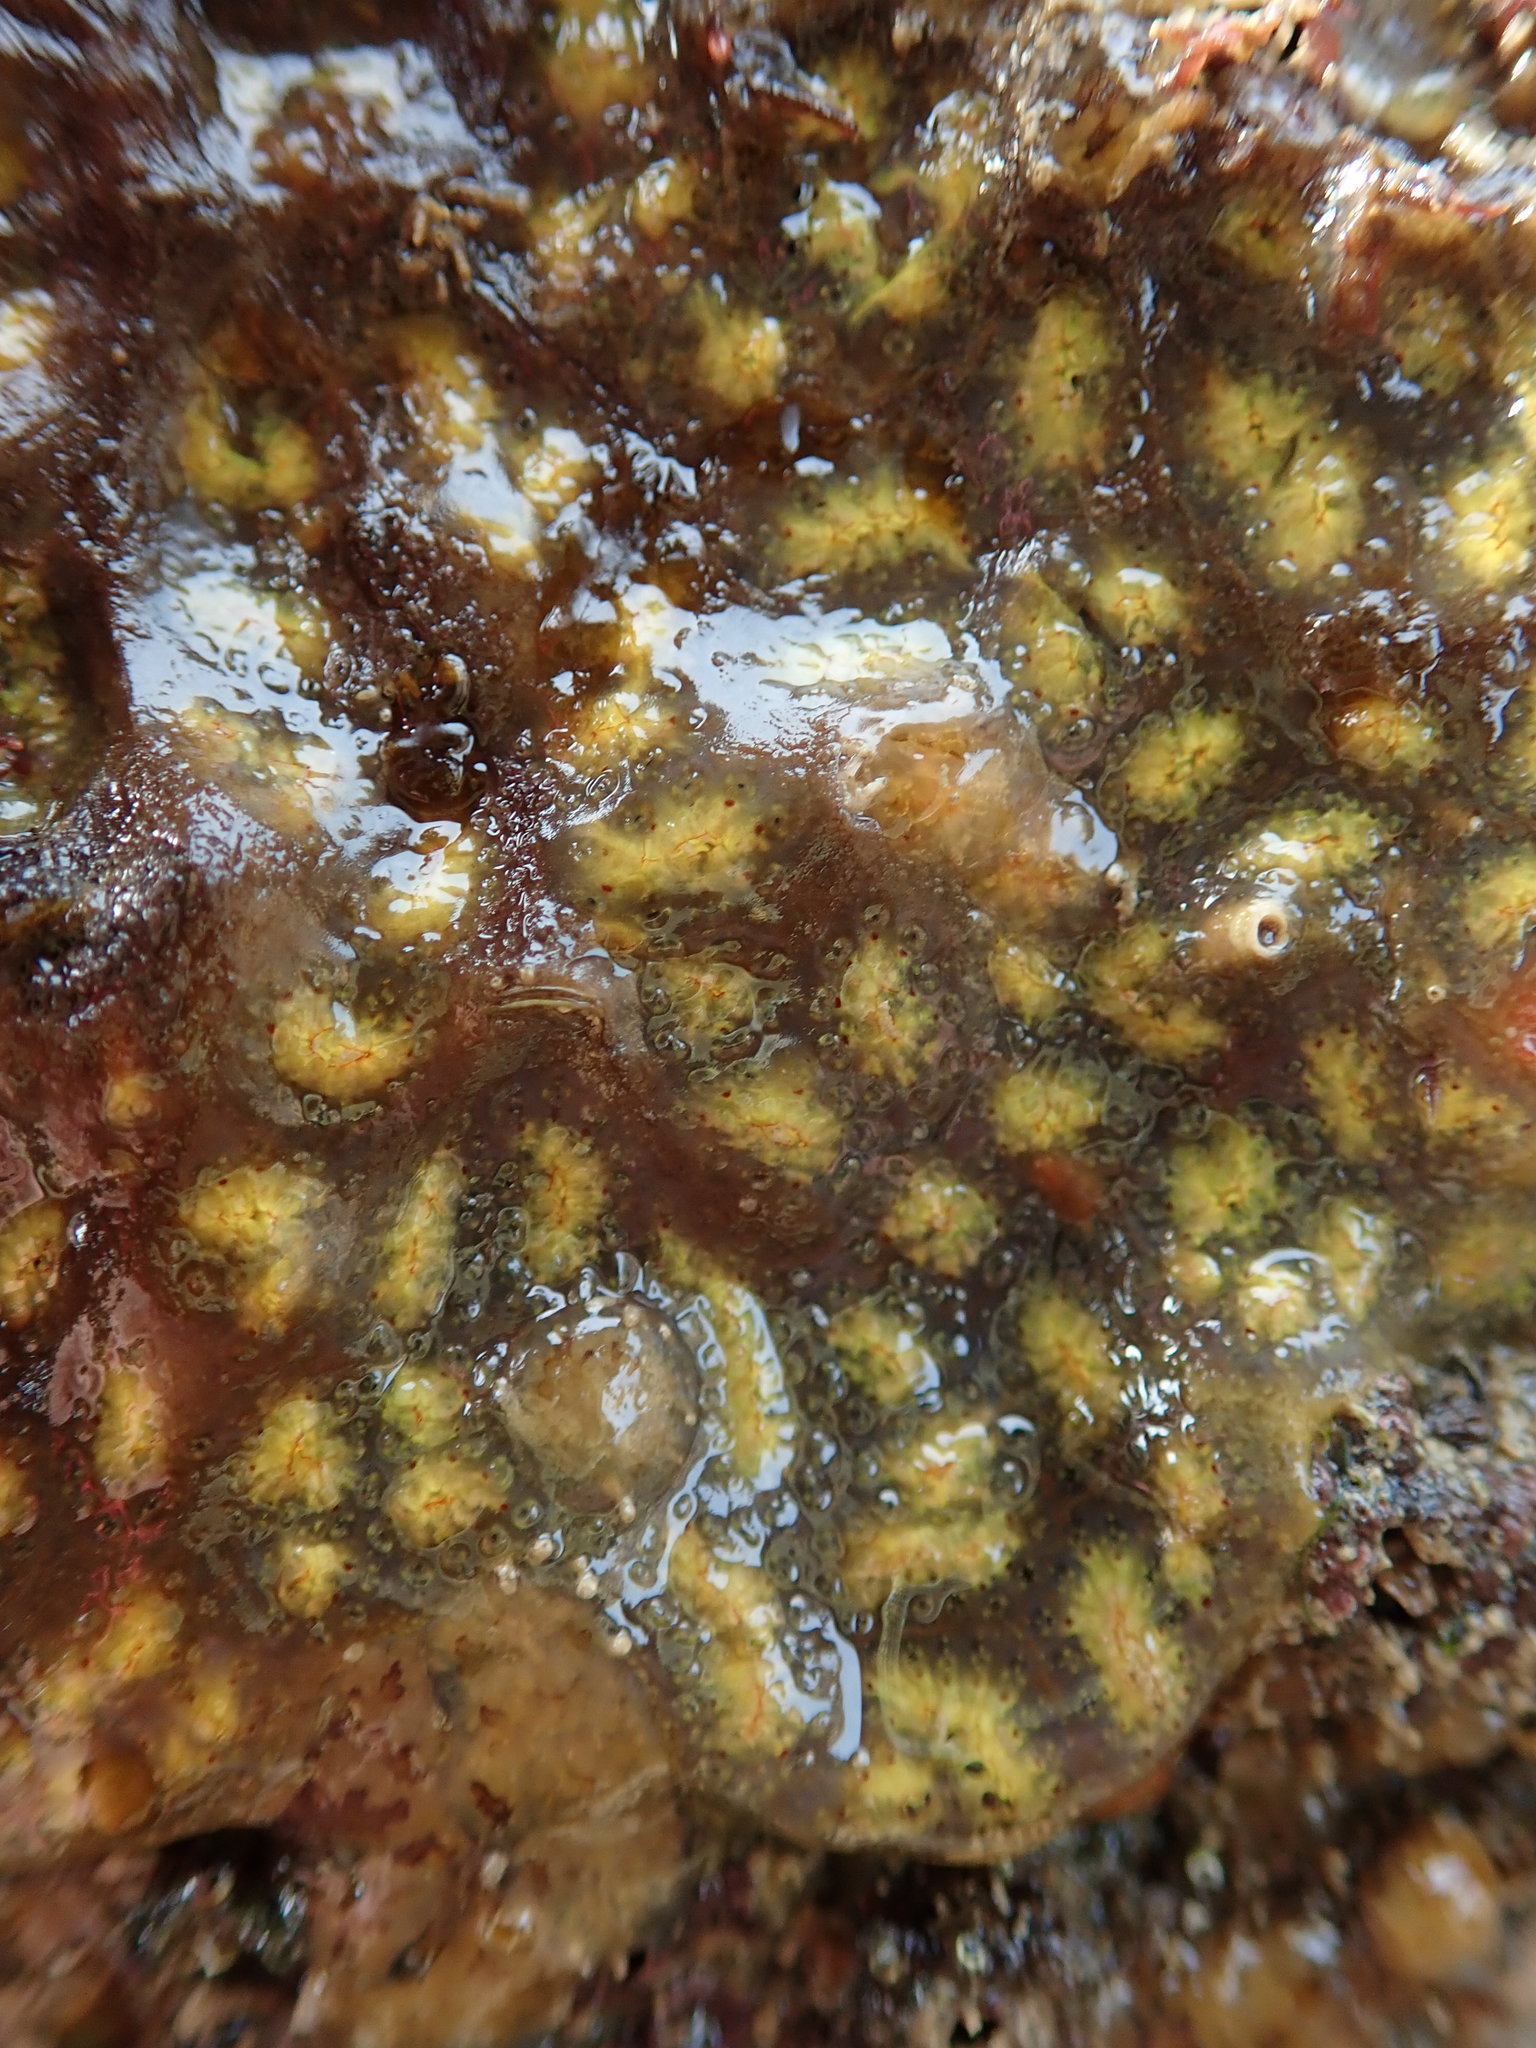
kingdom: Animalia
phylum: Chordata
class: Ascidiacea
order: Stolidobranchia
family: Styelidae
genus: Botryllus
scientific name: Botryllus schlosseri
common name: Golden star tunicate
